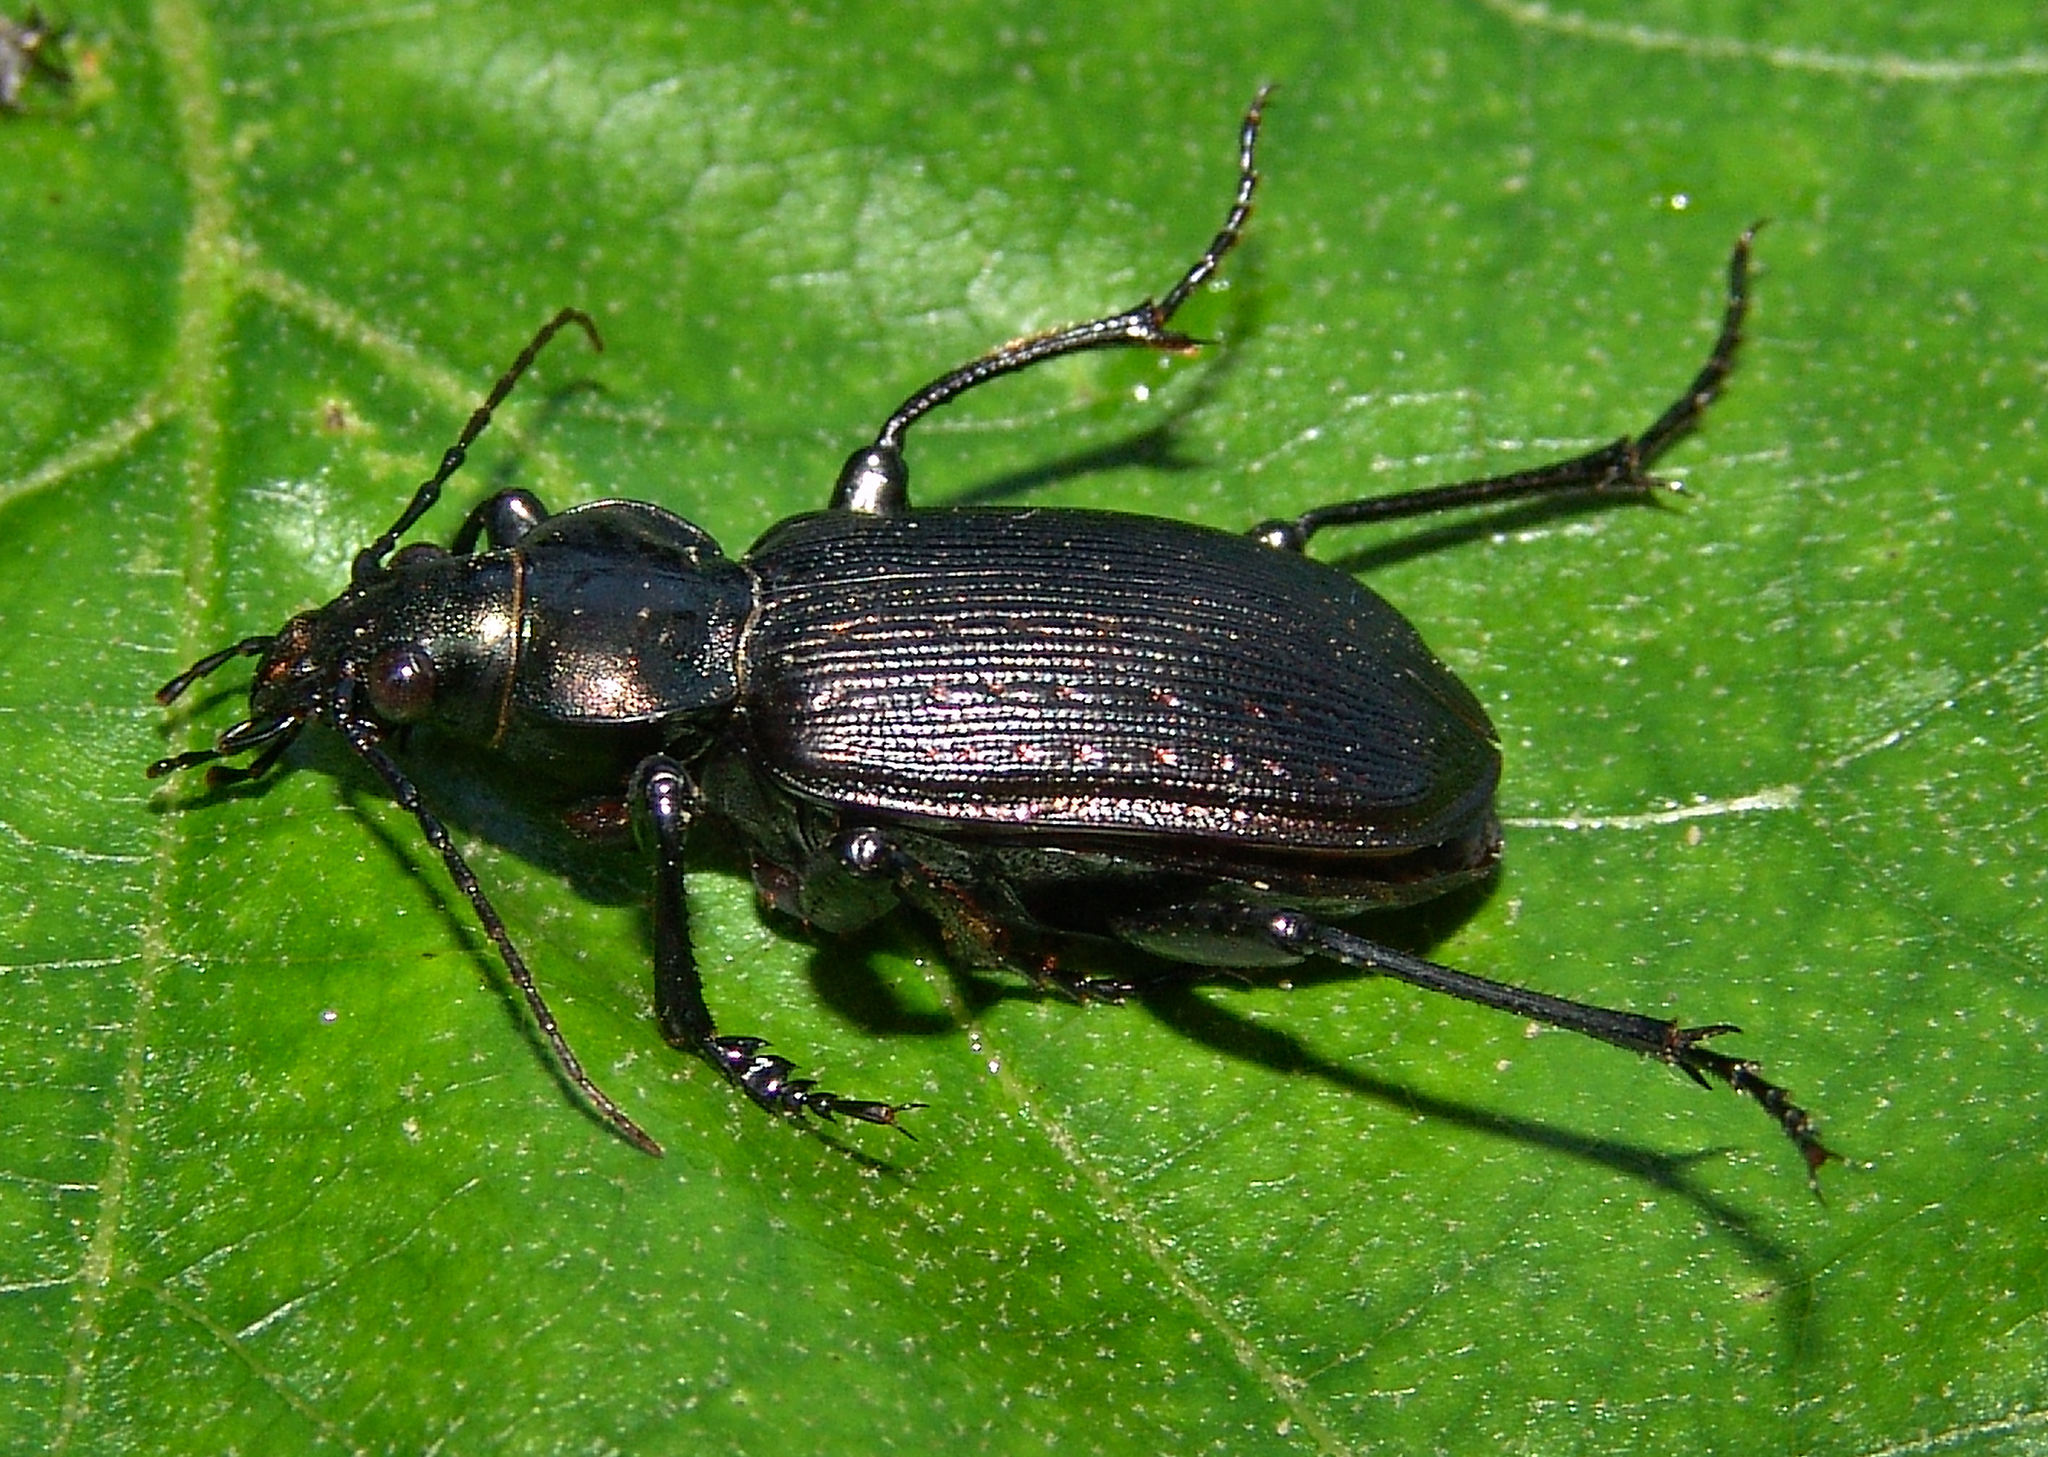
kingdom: Animalia
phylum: Arthropoda
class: Insecta
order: Coleoptera
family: Carabidae
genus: Calosoma
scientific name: Calosoma sayi
